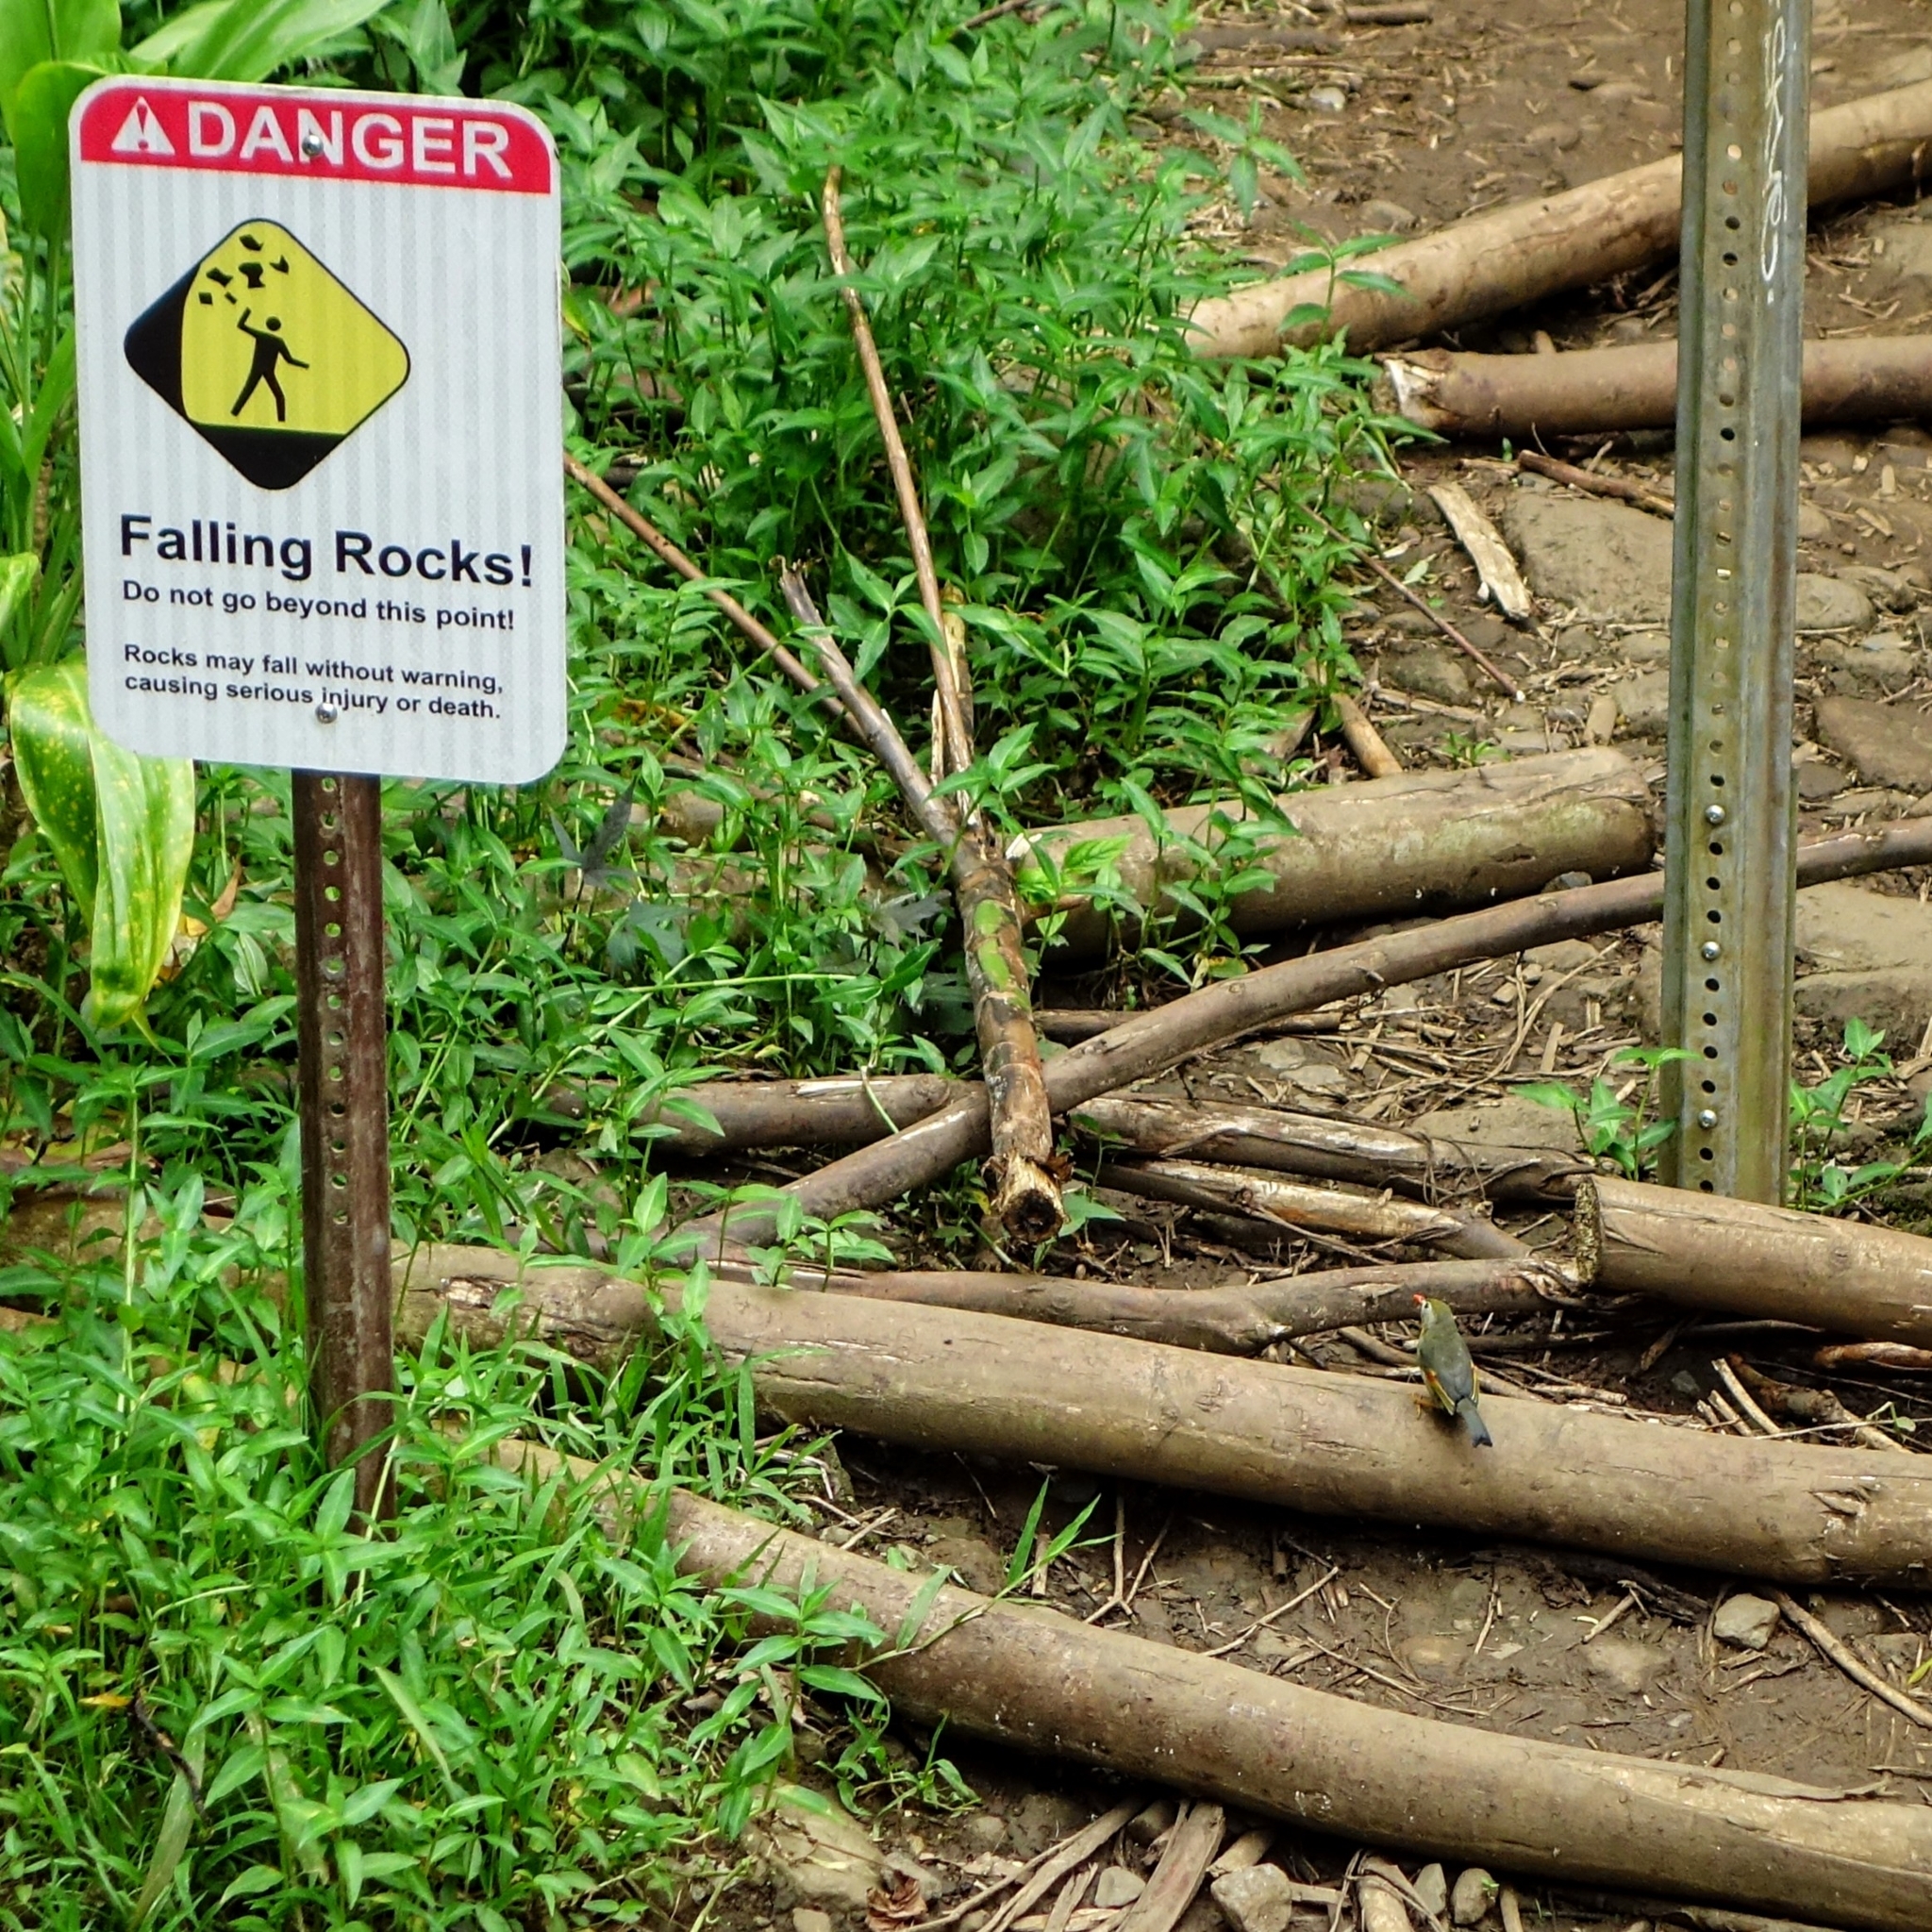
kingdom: Animalia
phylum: Chordata
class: Aves
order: Passeriformes
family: Leiothrichidae
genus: Leiothrix
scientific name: Leiothrix lutea
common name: Red-billed leiothrix
